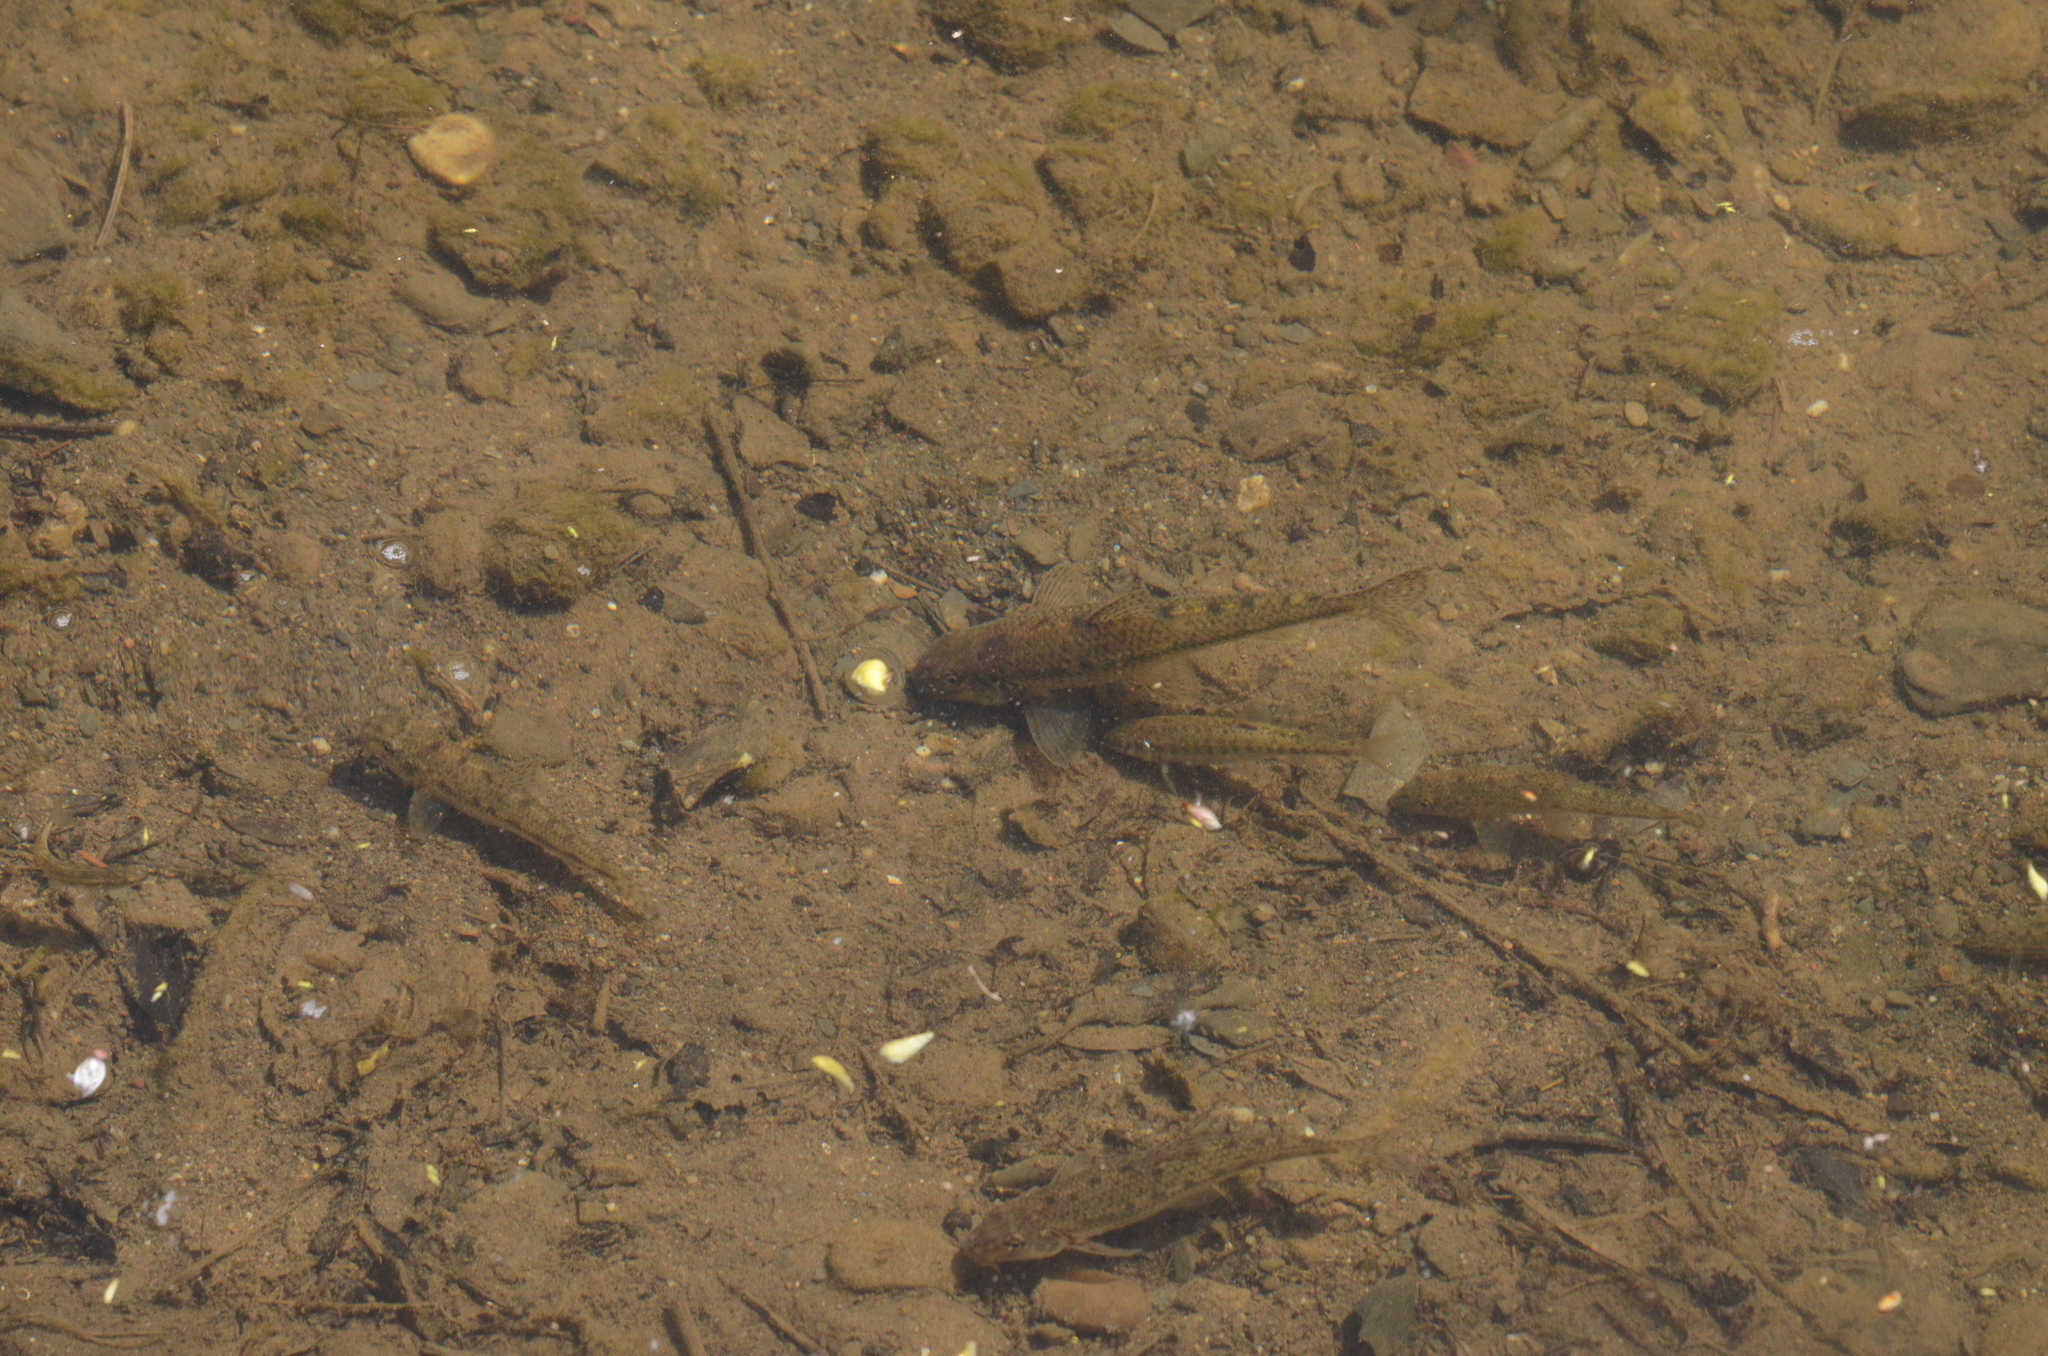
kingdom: Animalia
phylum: Chordata
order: Cypriniformes
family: Cyprinidae
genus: Gobio
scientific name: Gobio gobio
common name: Gudgeon
